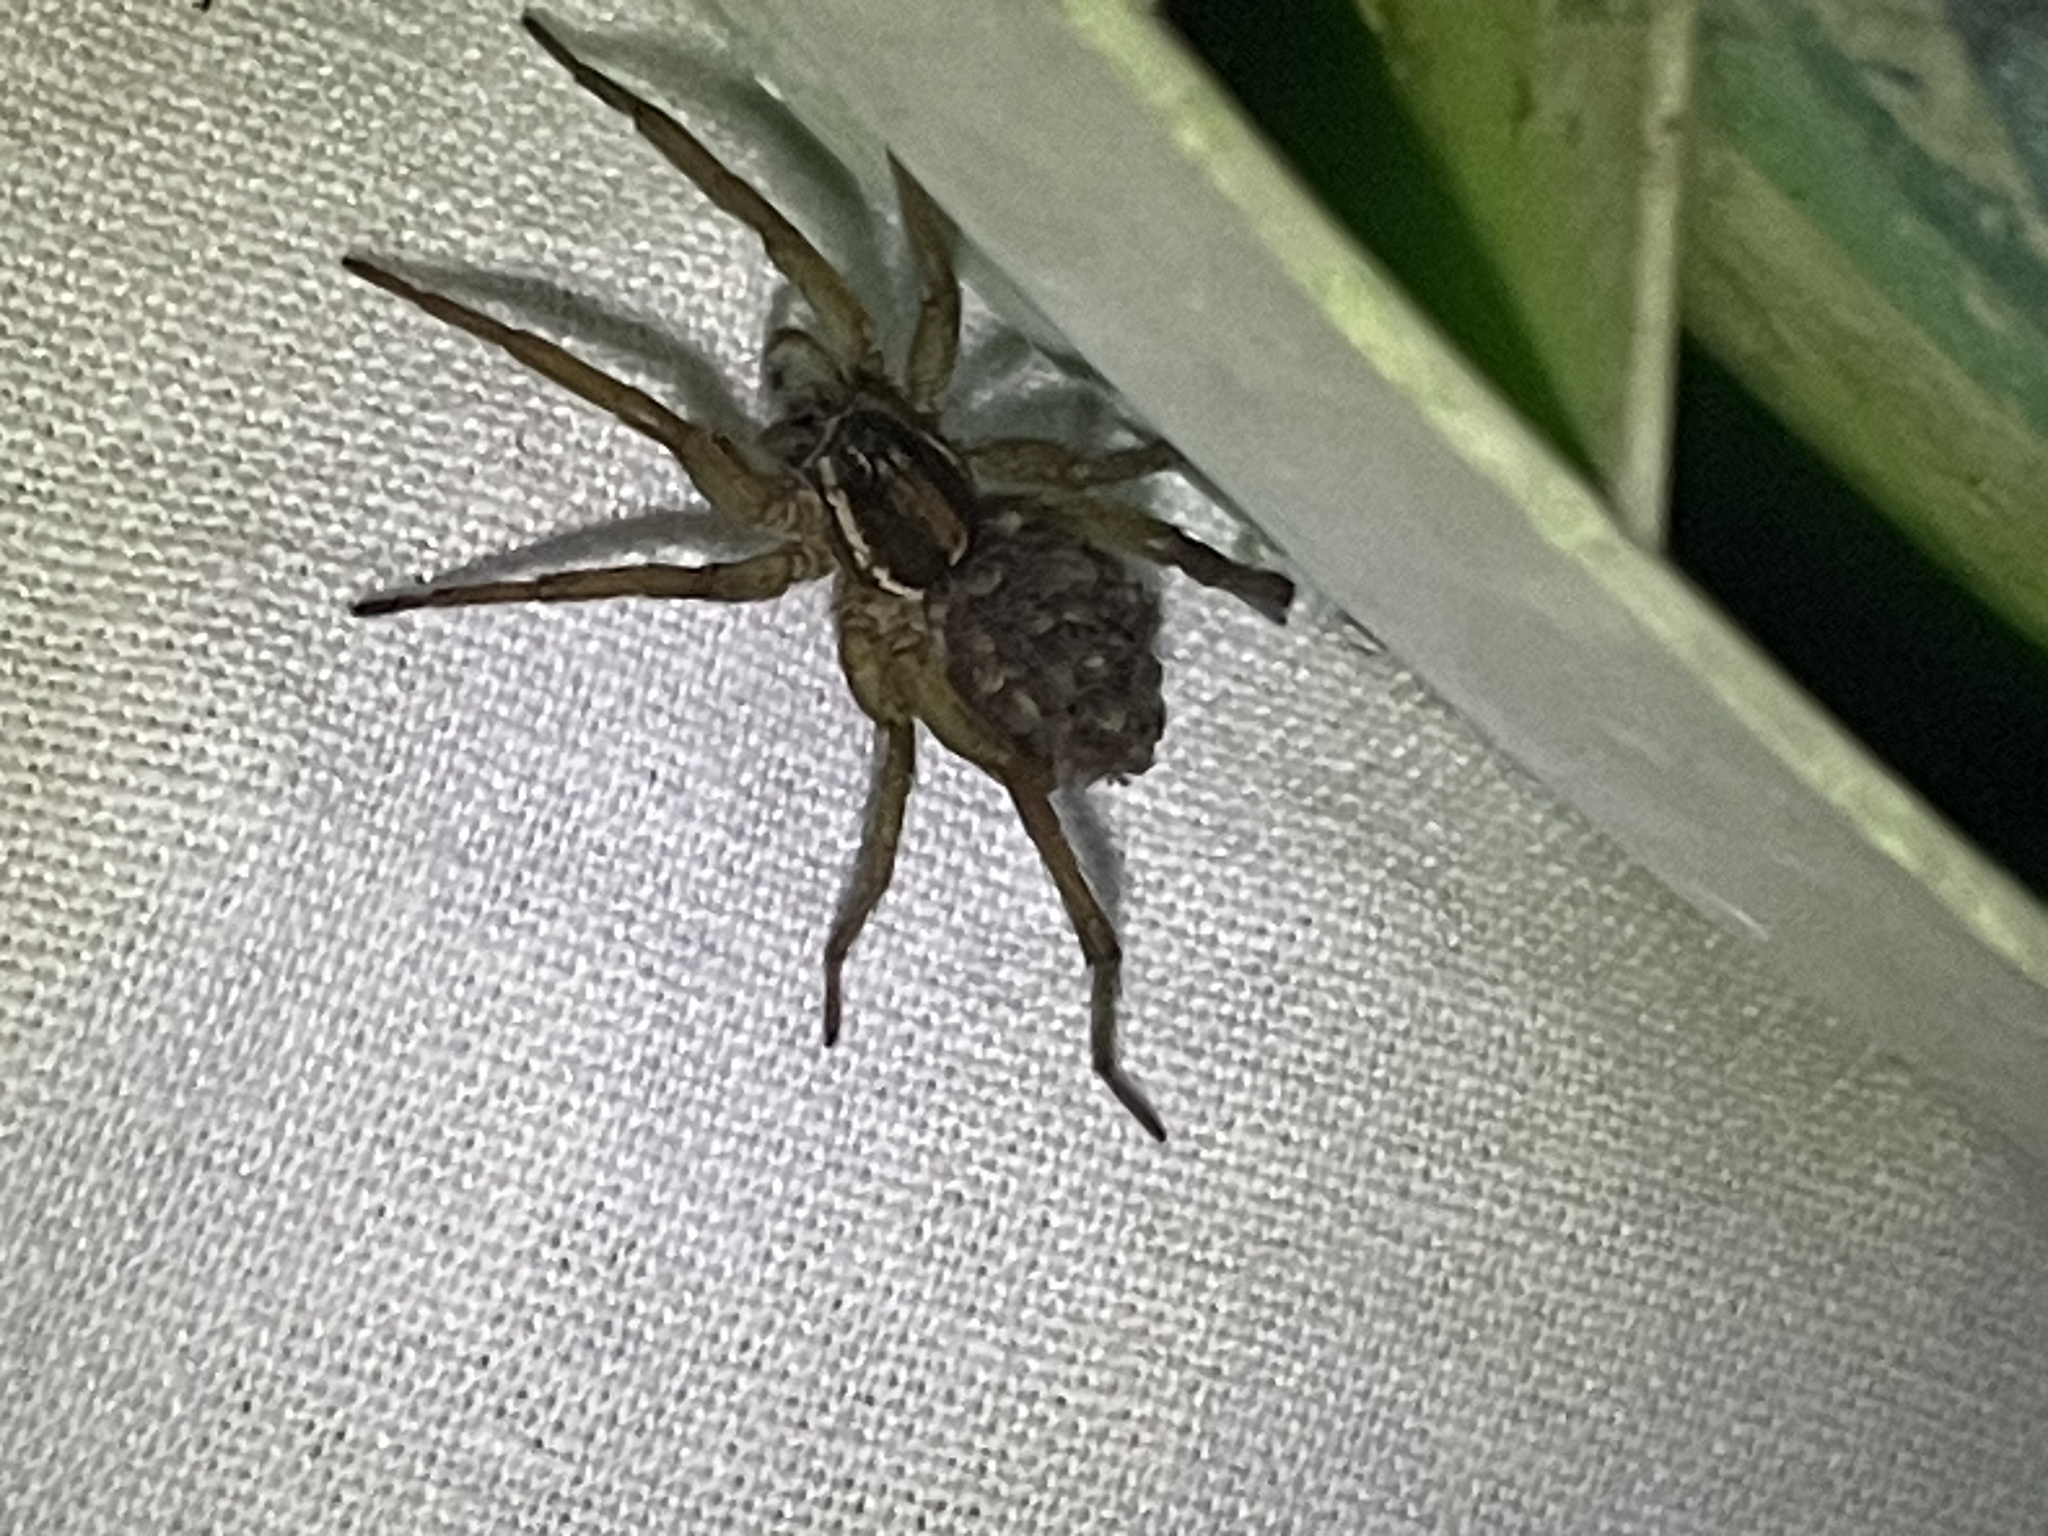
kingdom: Animalia
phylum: Arthropoda
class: Arachnida
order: Araneae
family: Lycosidae
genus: Venatrix
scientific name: Venatrix furcillata
